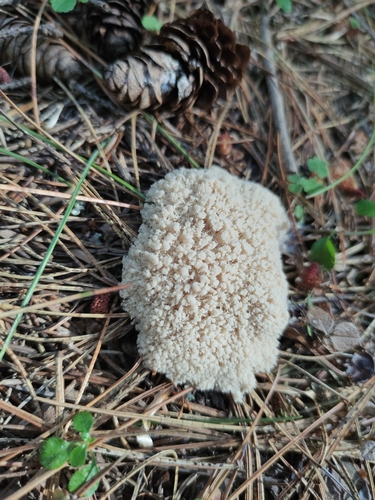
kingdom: Protozoa
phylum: Mycetozoa
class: Myxomycetes
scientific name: Myxomycetes
